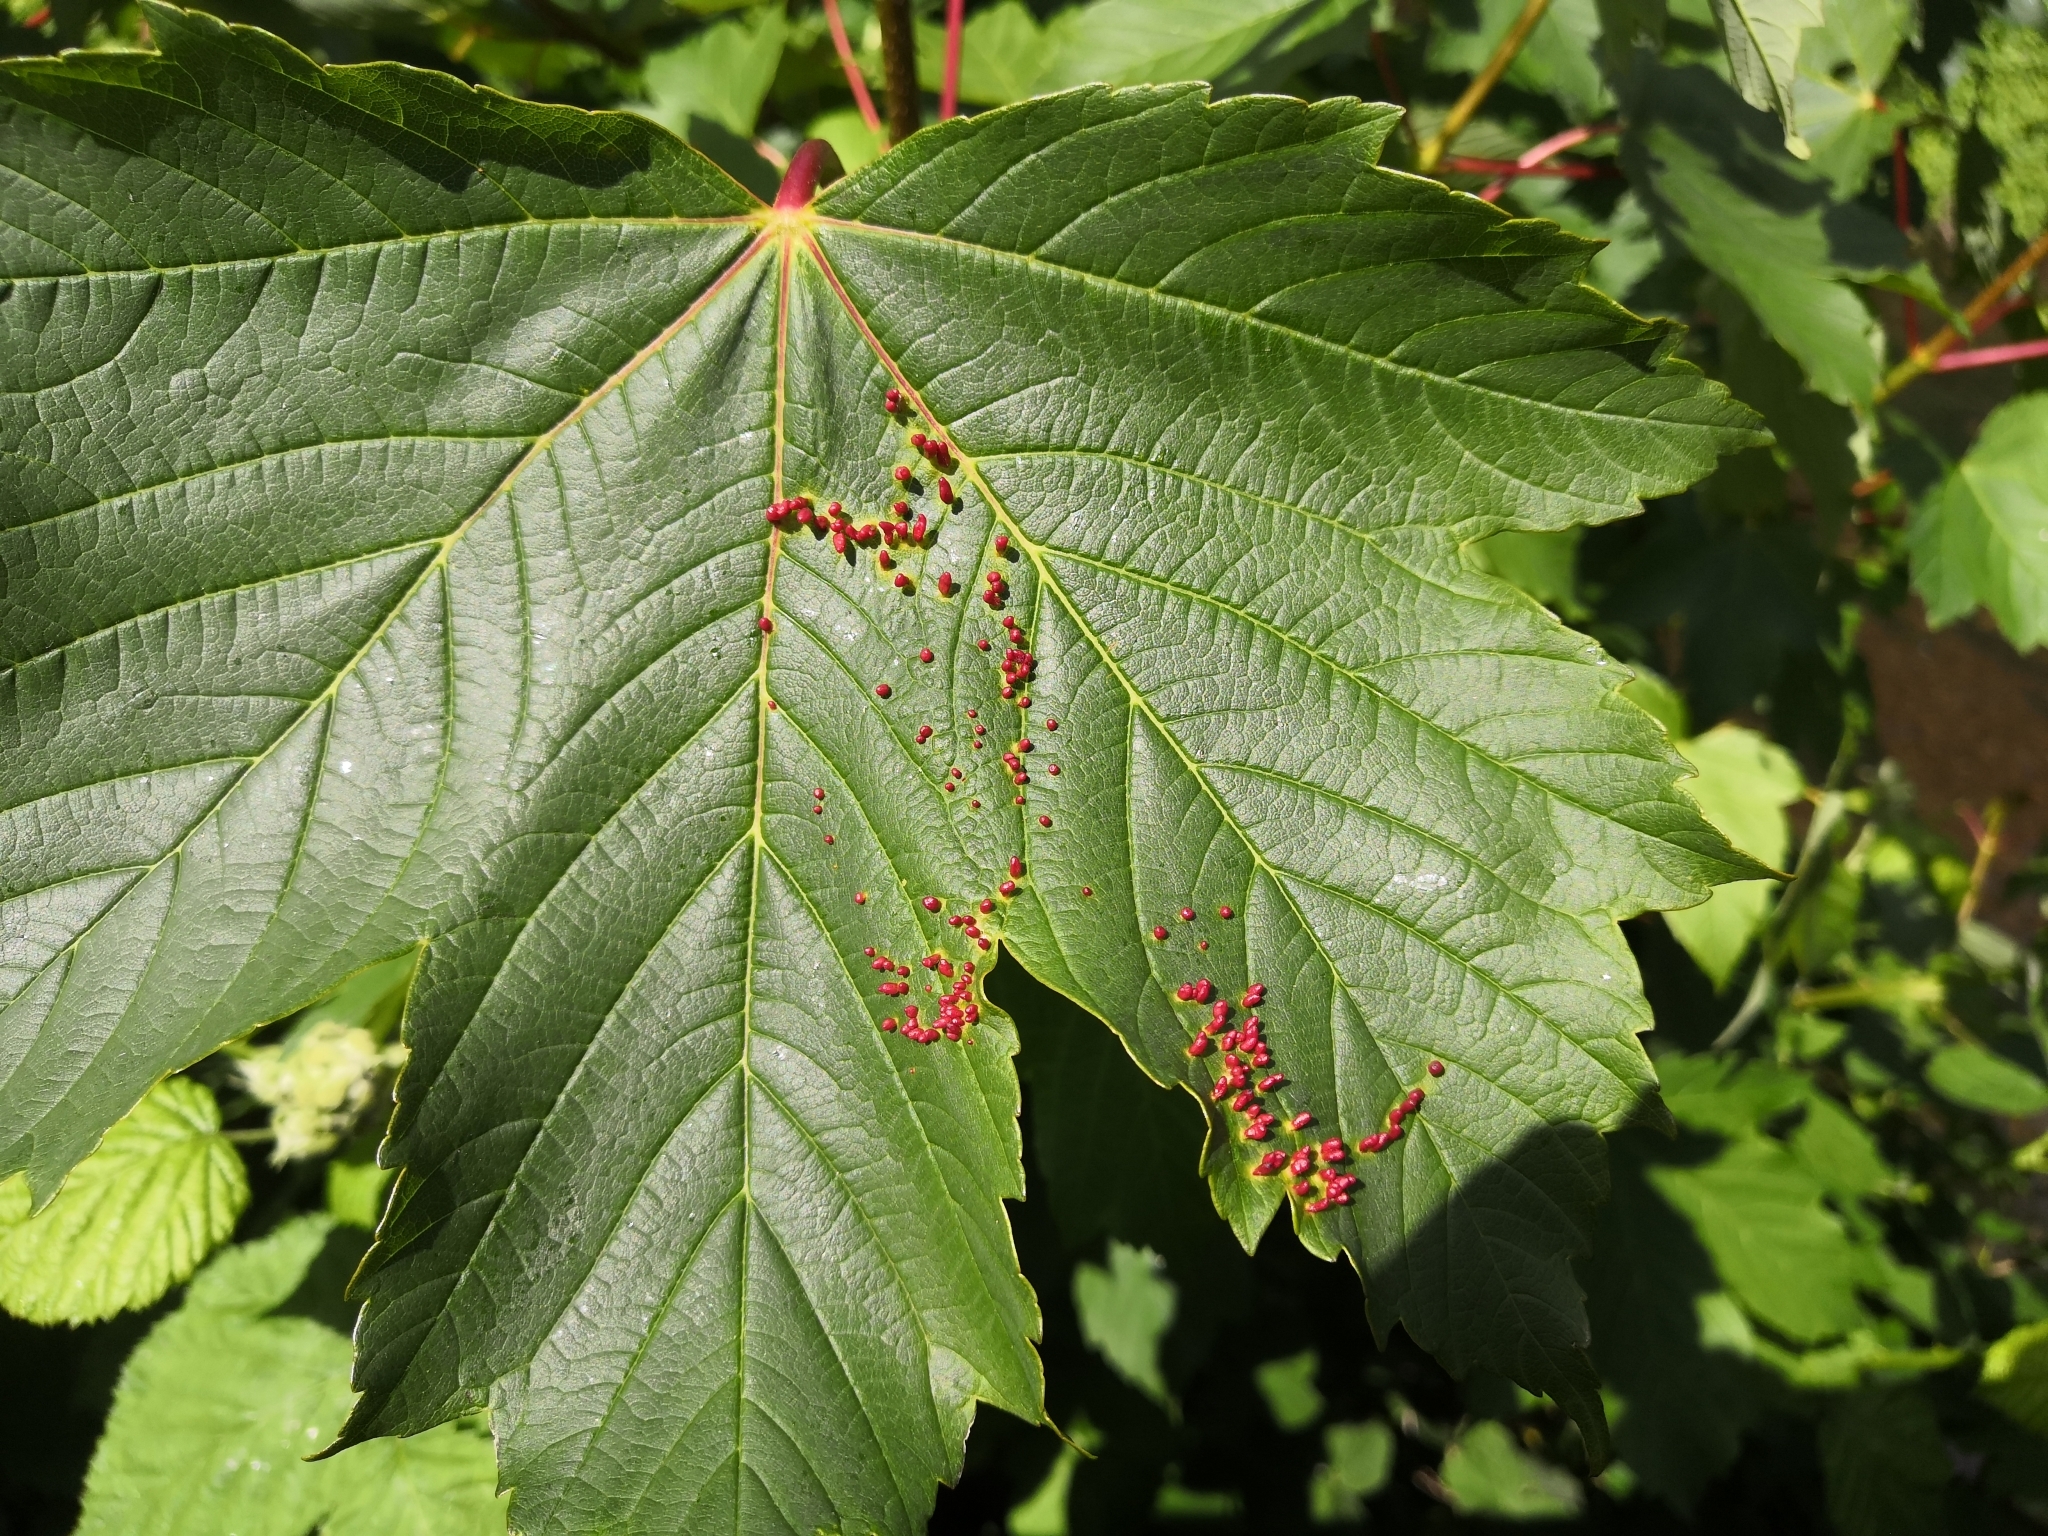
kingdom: Animalia
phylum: Arthropoda
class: Arachnida
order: Trombidiformes
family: Eriophyidae
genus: Aceria
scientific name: Aceria cephaloneus
